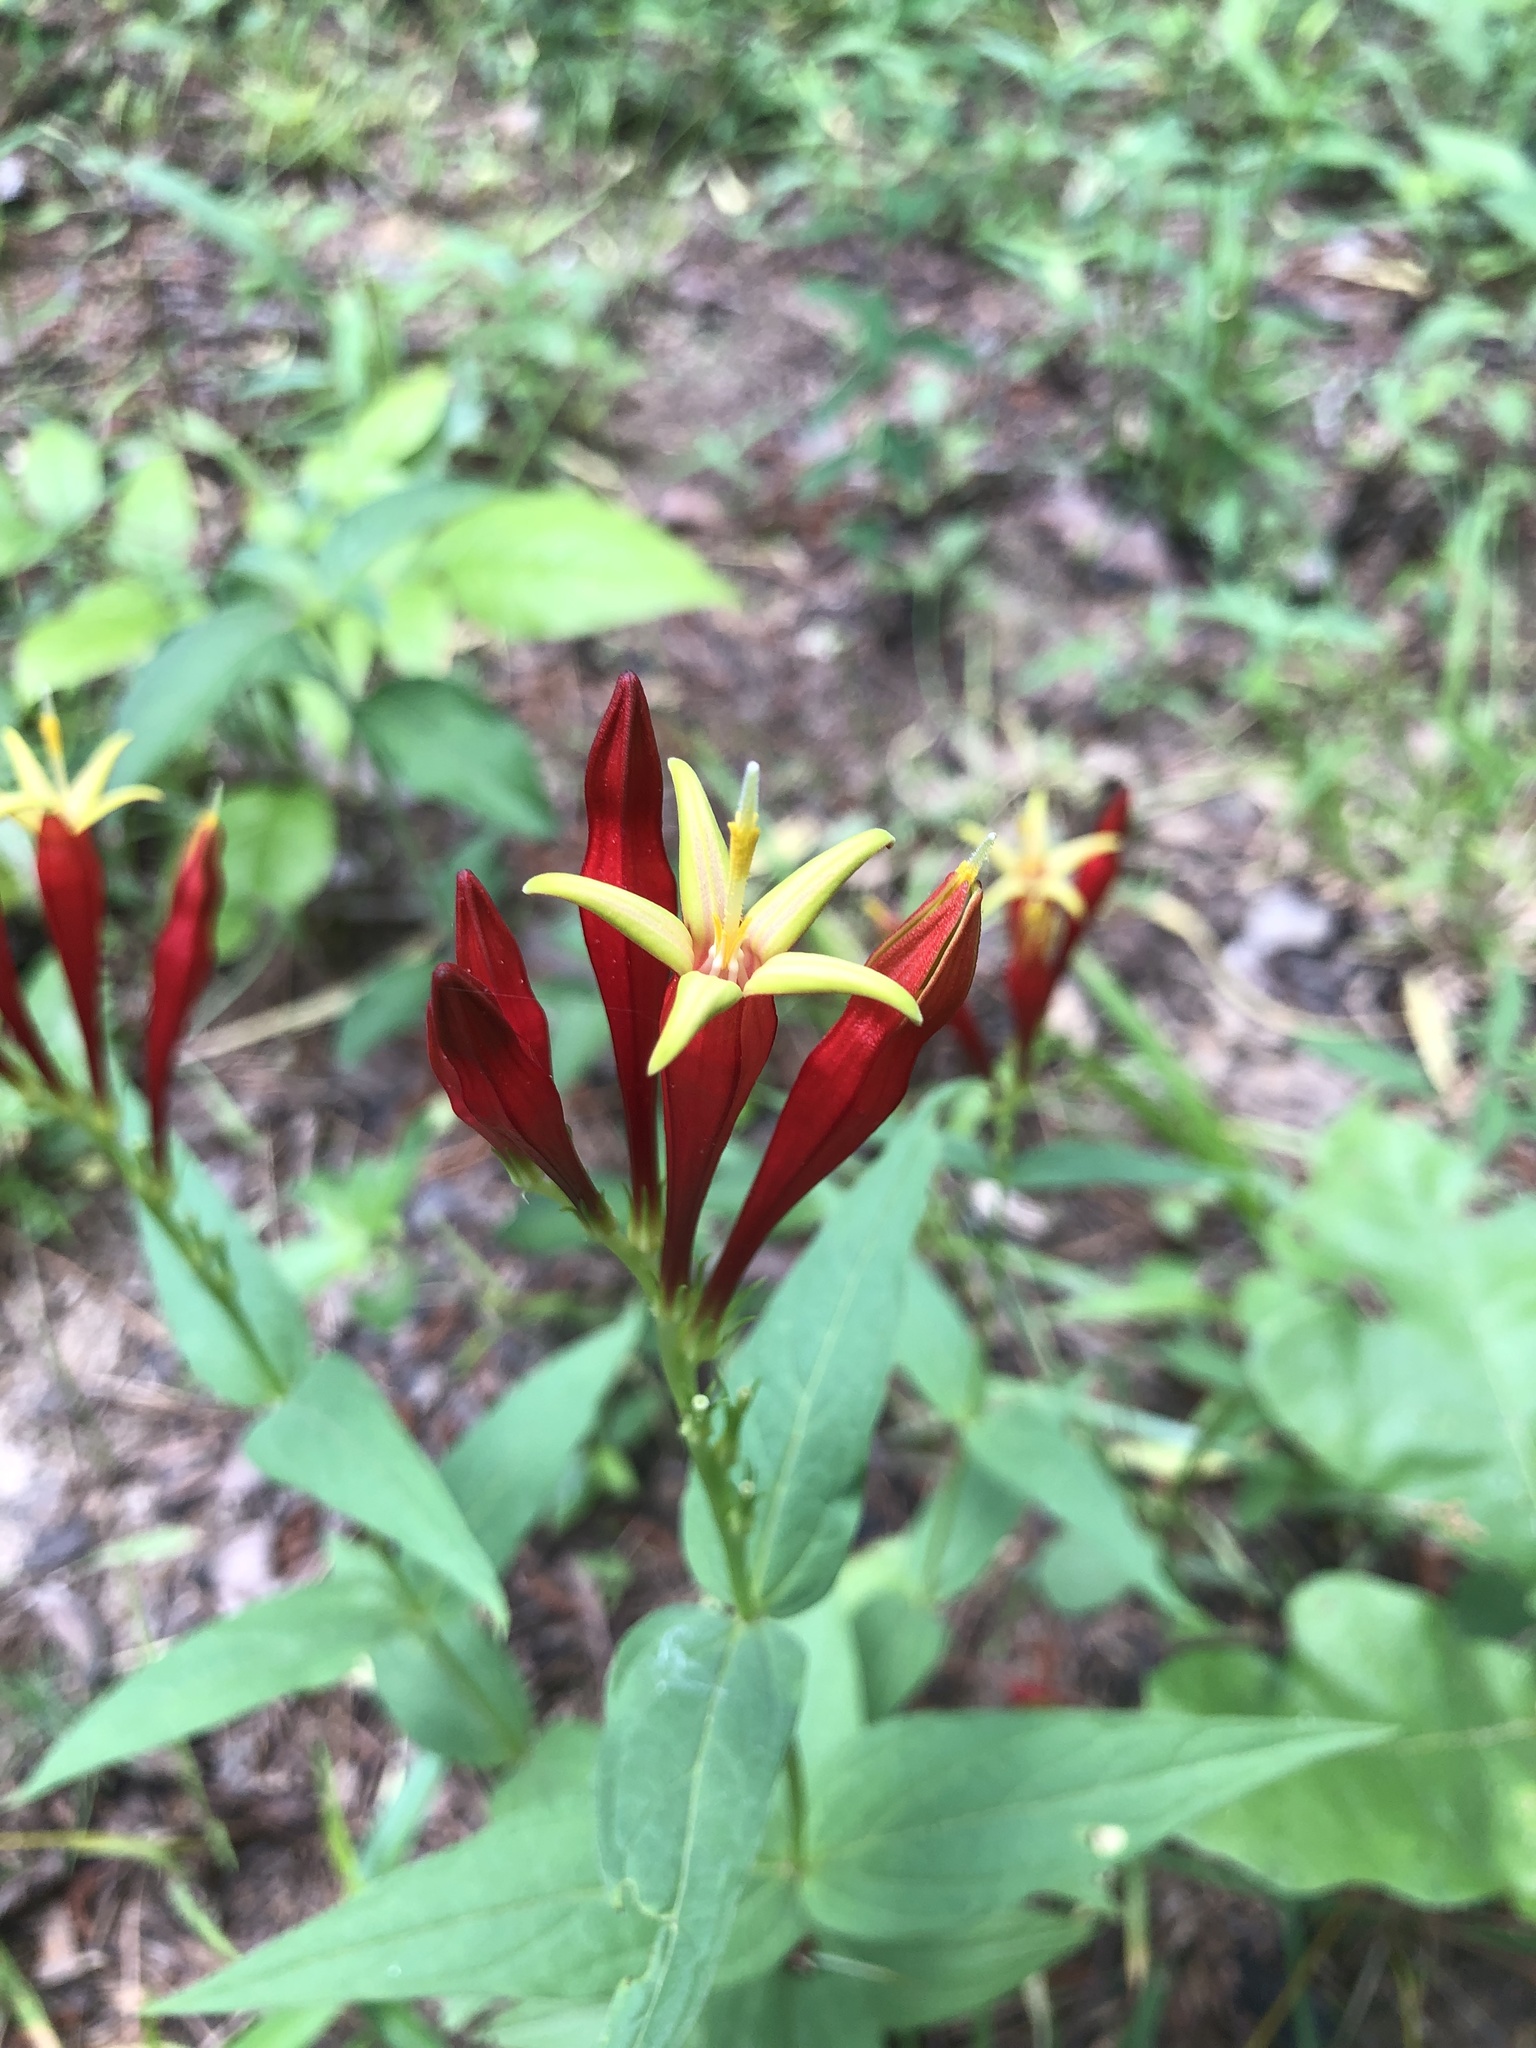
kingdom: Plantae
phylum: Tracheophyta
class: Magnoliopsida
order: Gentianales
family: Loganiaceae
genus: Spigelia
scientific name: Spigelia marilandica
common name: Indian-pink
